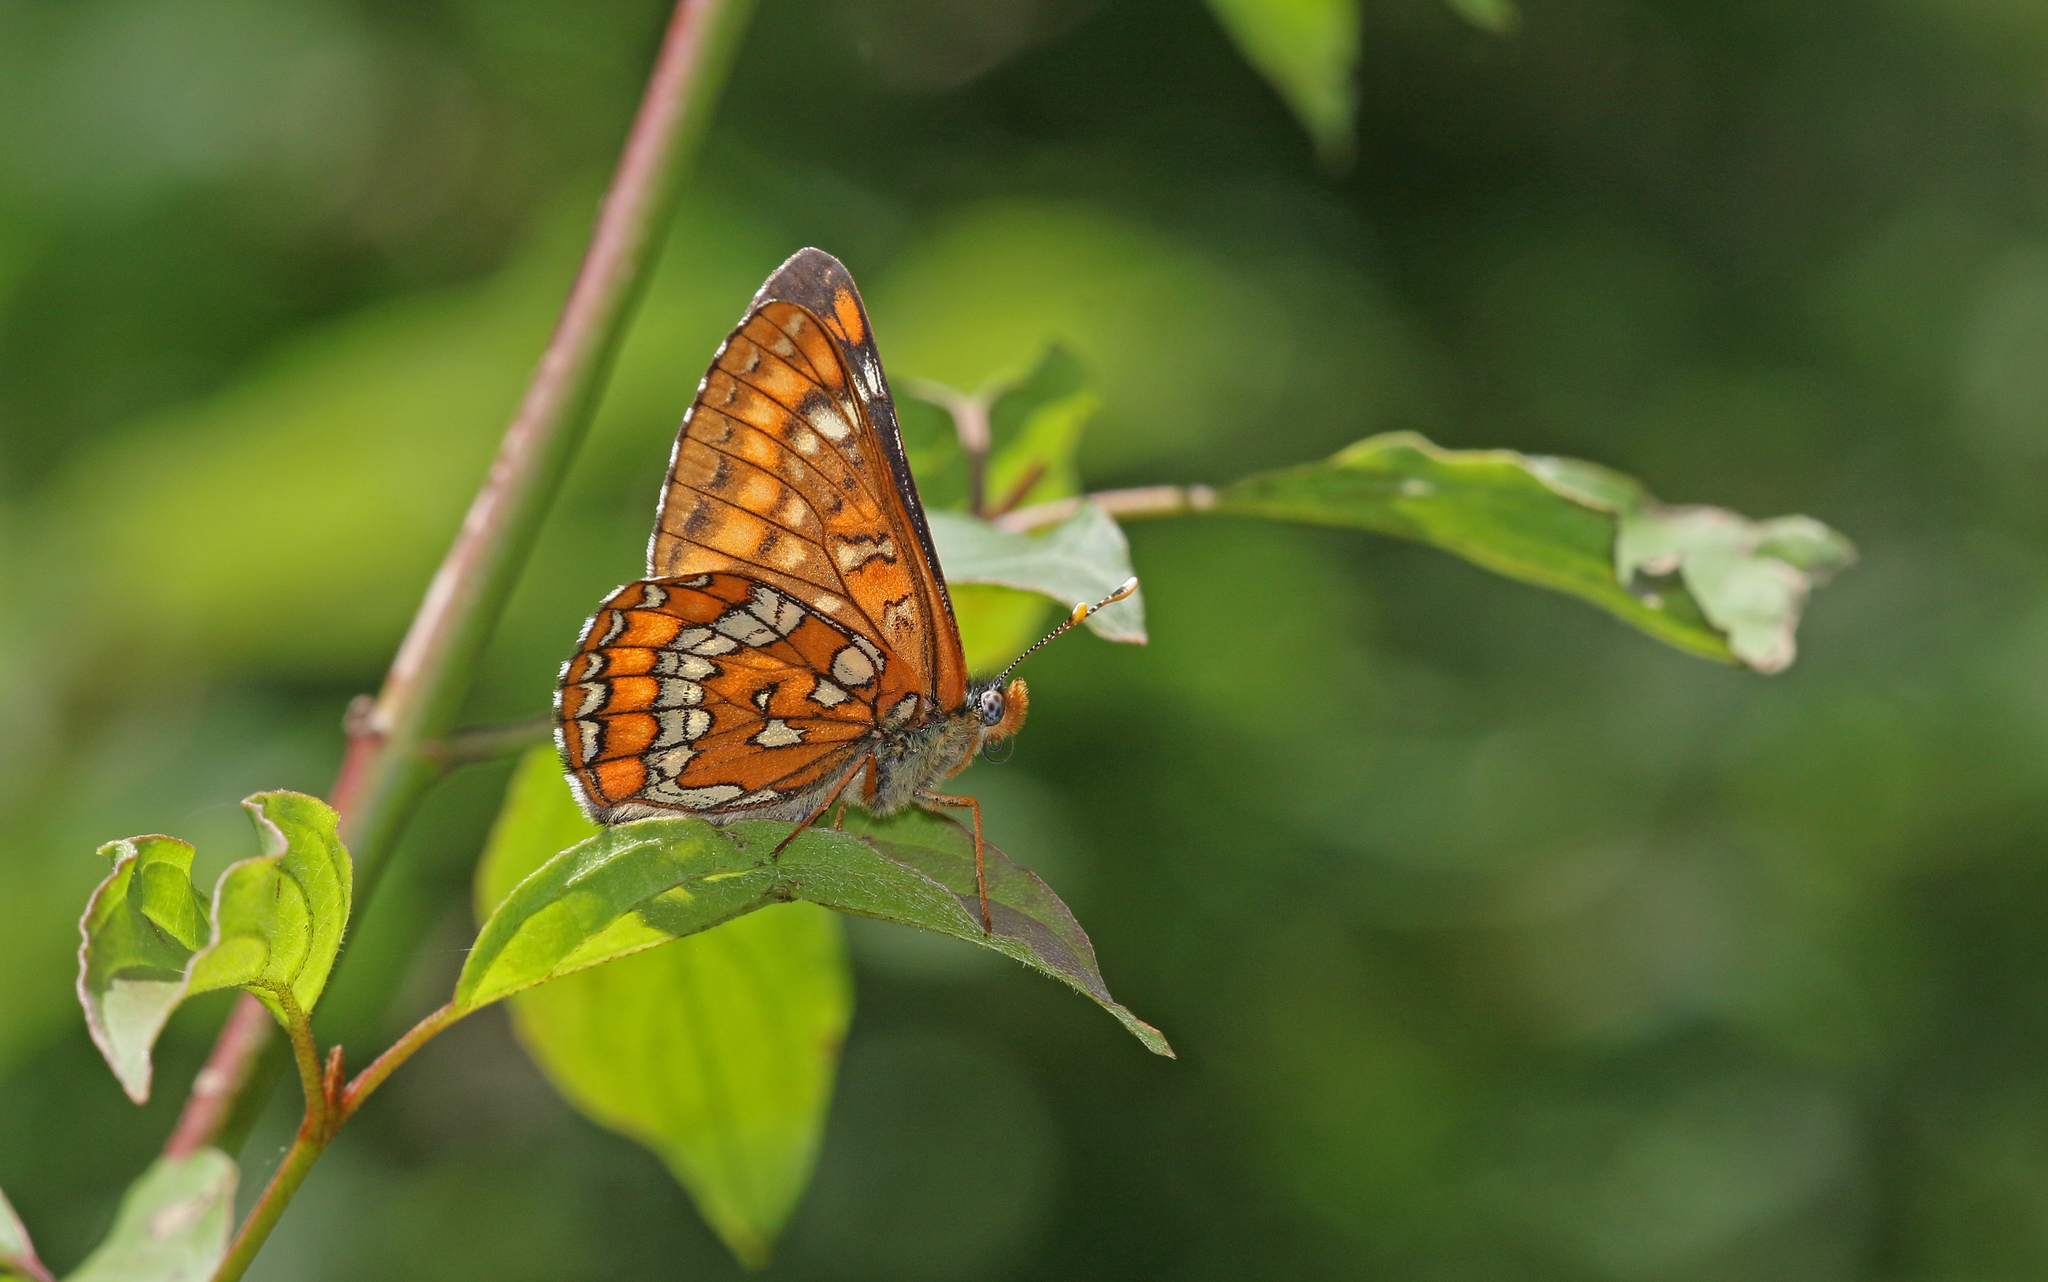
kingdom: Animalia
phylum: Arthropoda
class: Insecta
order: Lepidoptera
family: Nymphalidae
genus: Euphydryas
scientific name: Euphydryas maturna
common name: Scarce fritillary
